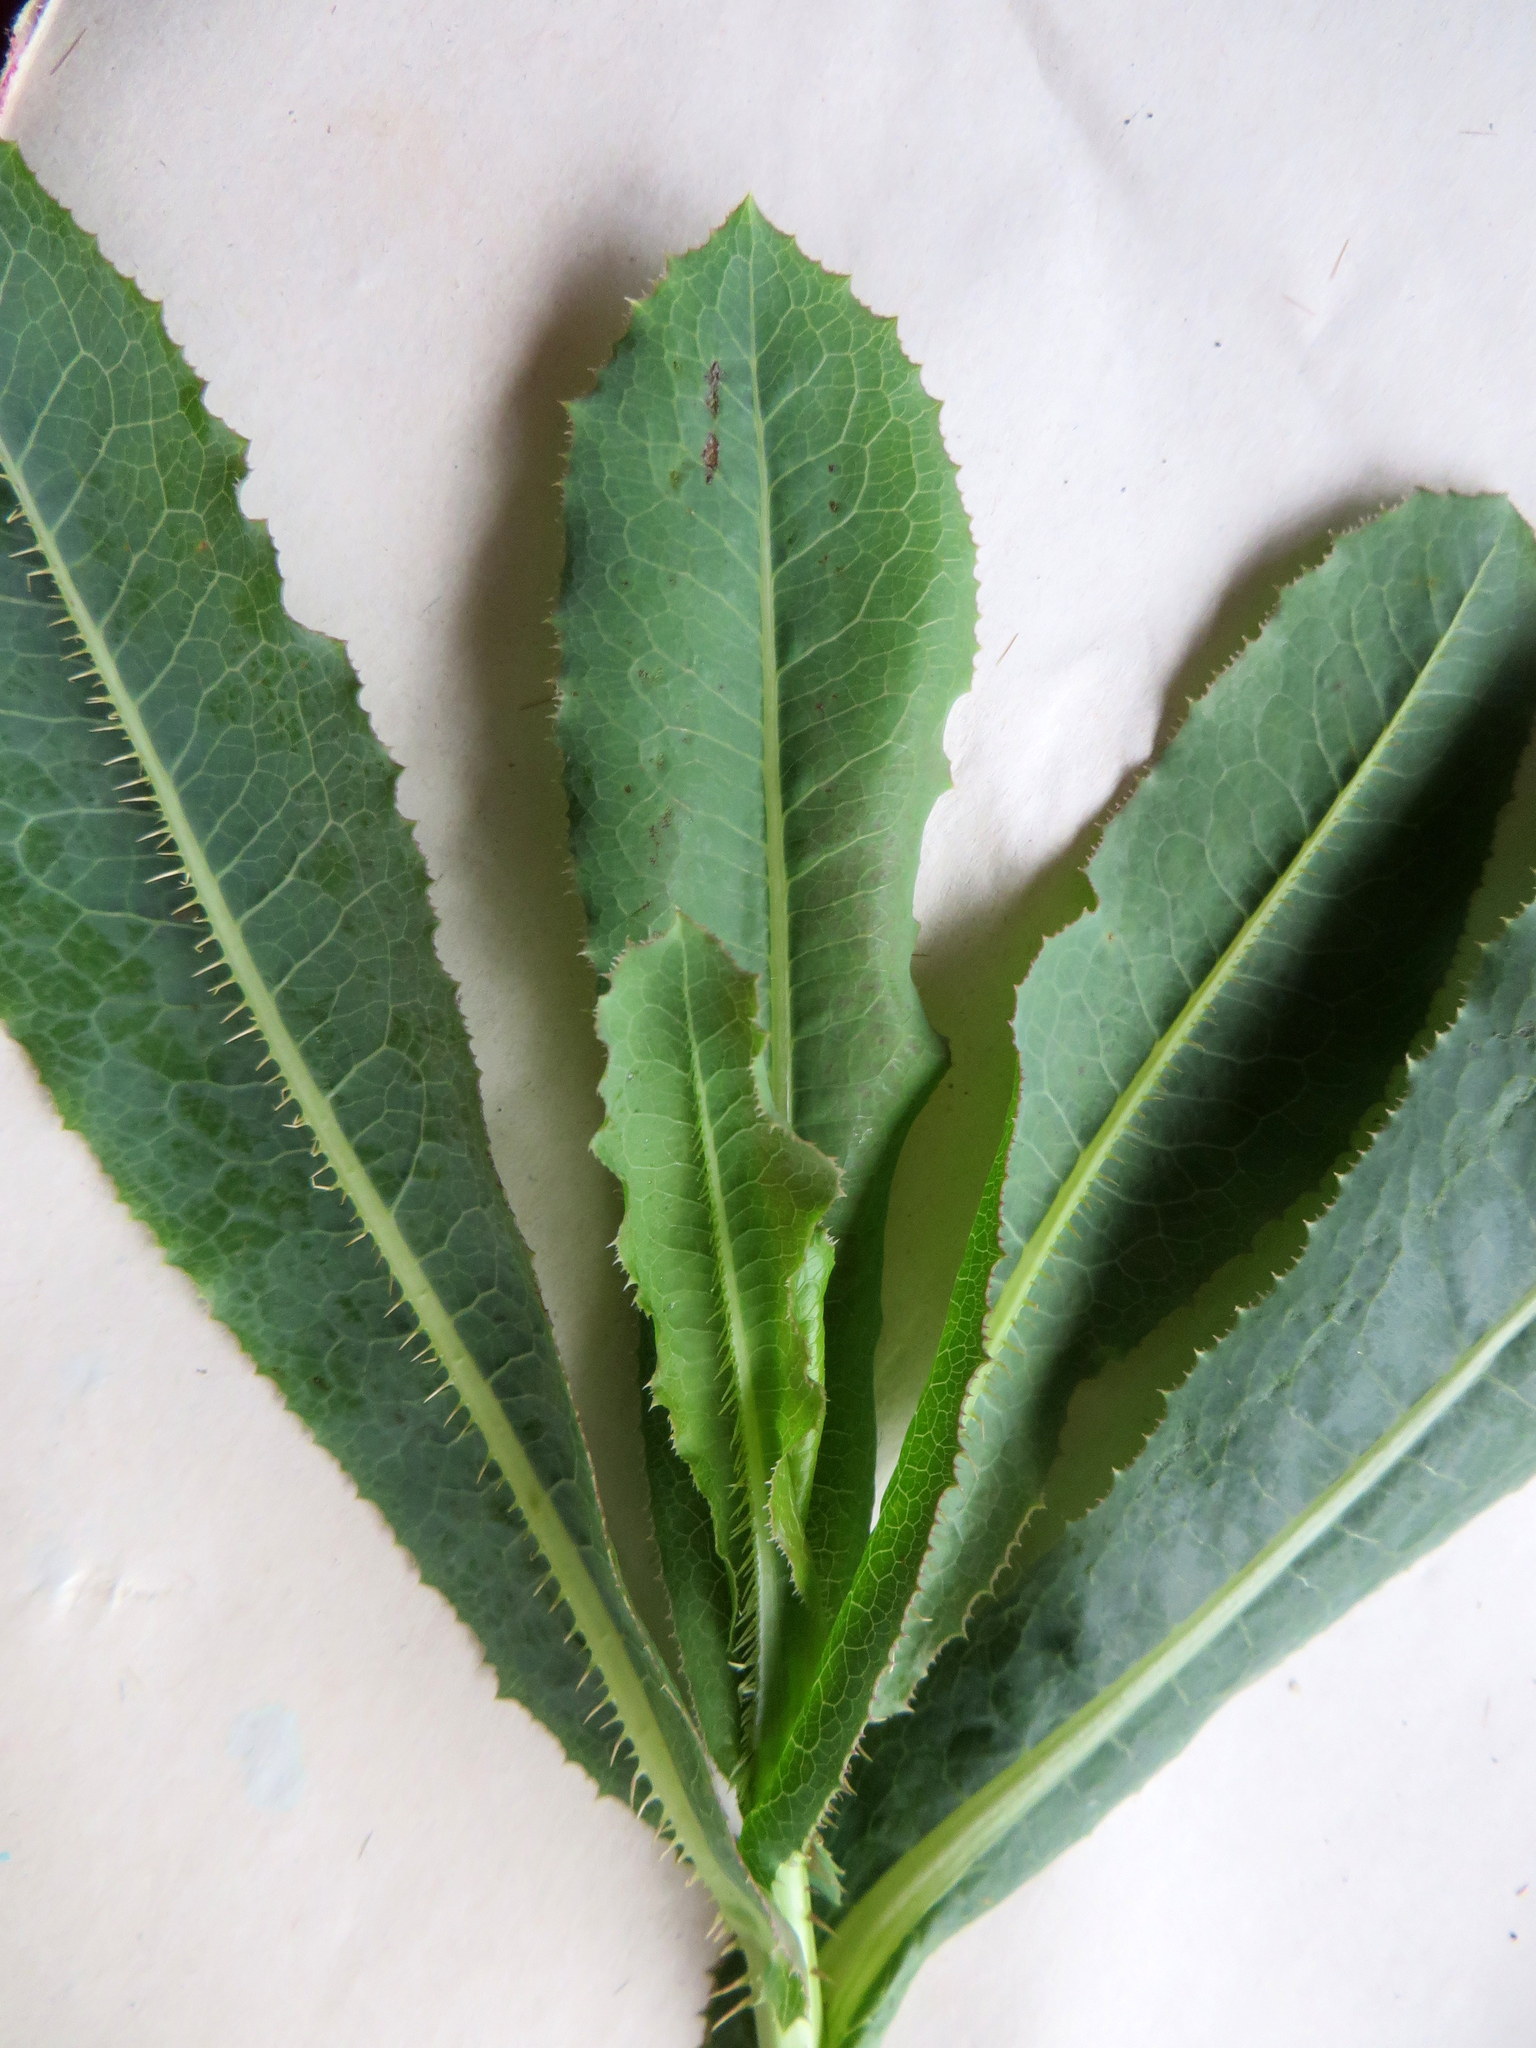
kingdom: Plantae
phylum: Tracheophyta
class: Magnoliopsida
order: Asterales
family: Asteraceae
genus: Lactuca
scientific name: Lactuca serriola
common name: Prickly lettuce
